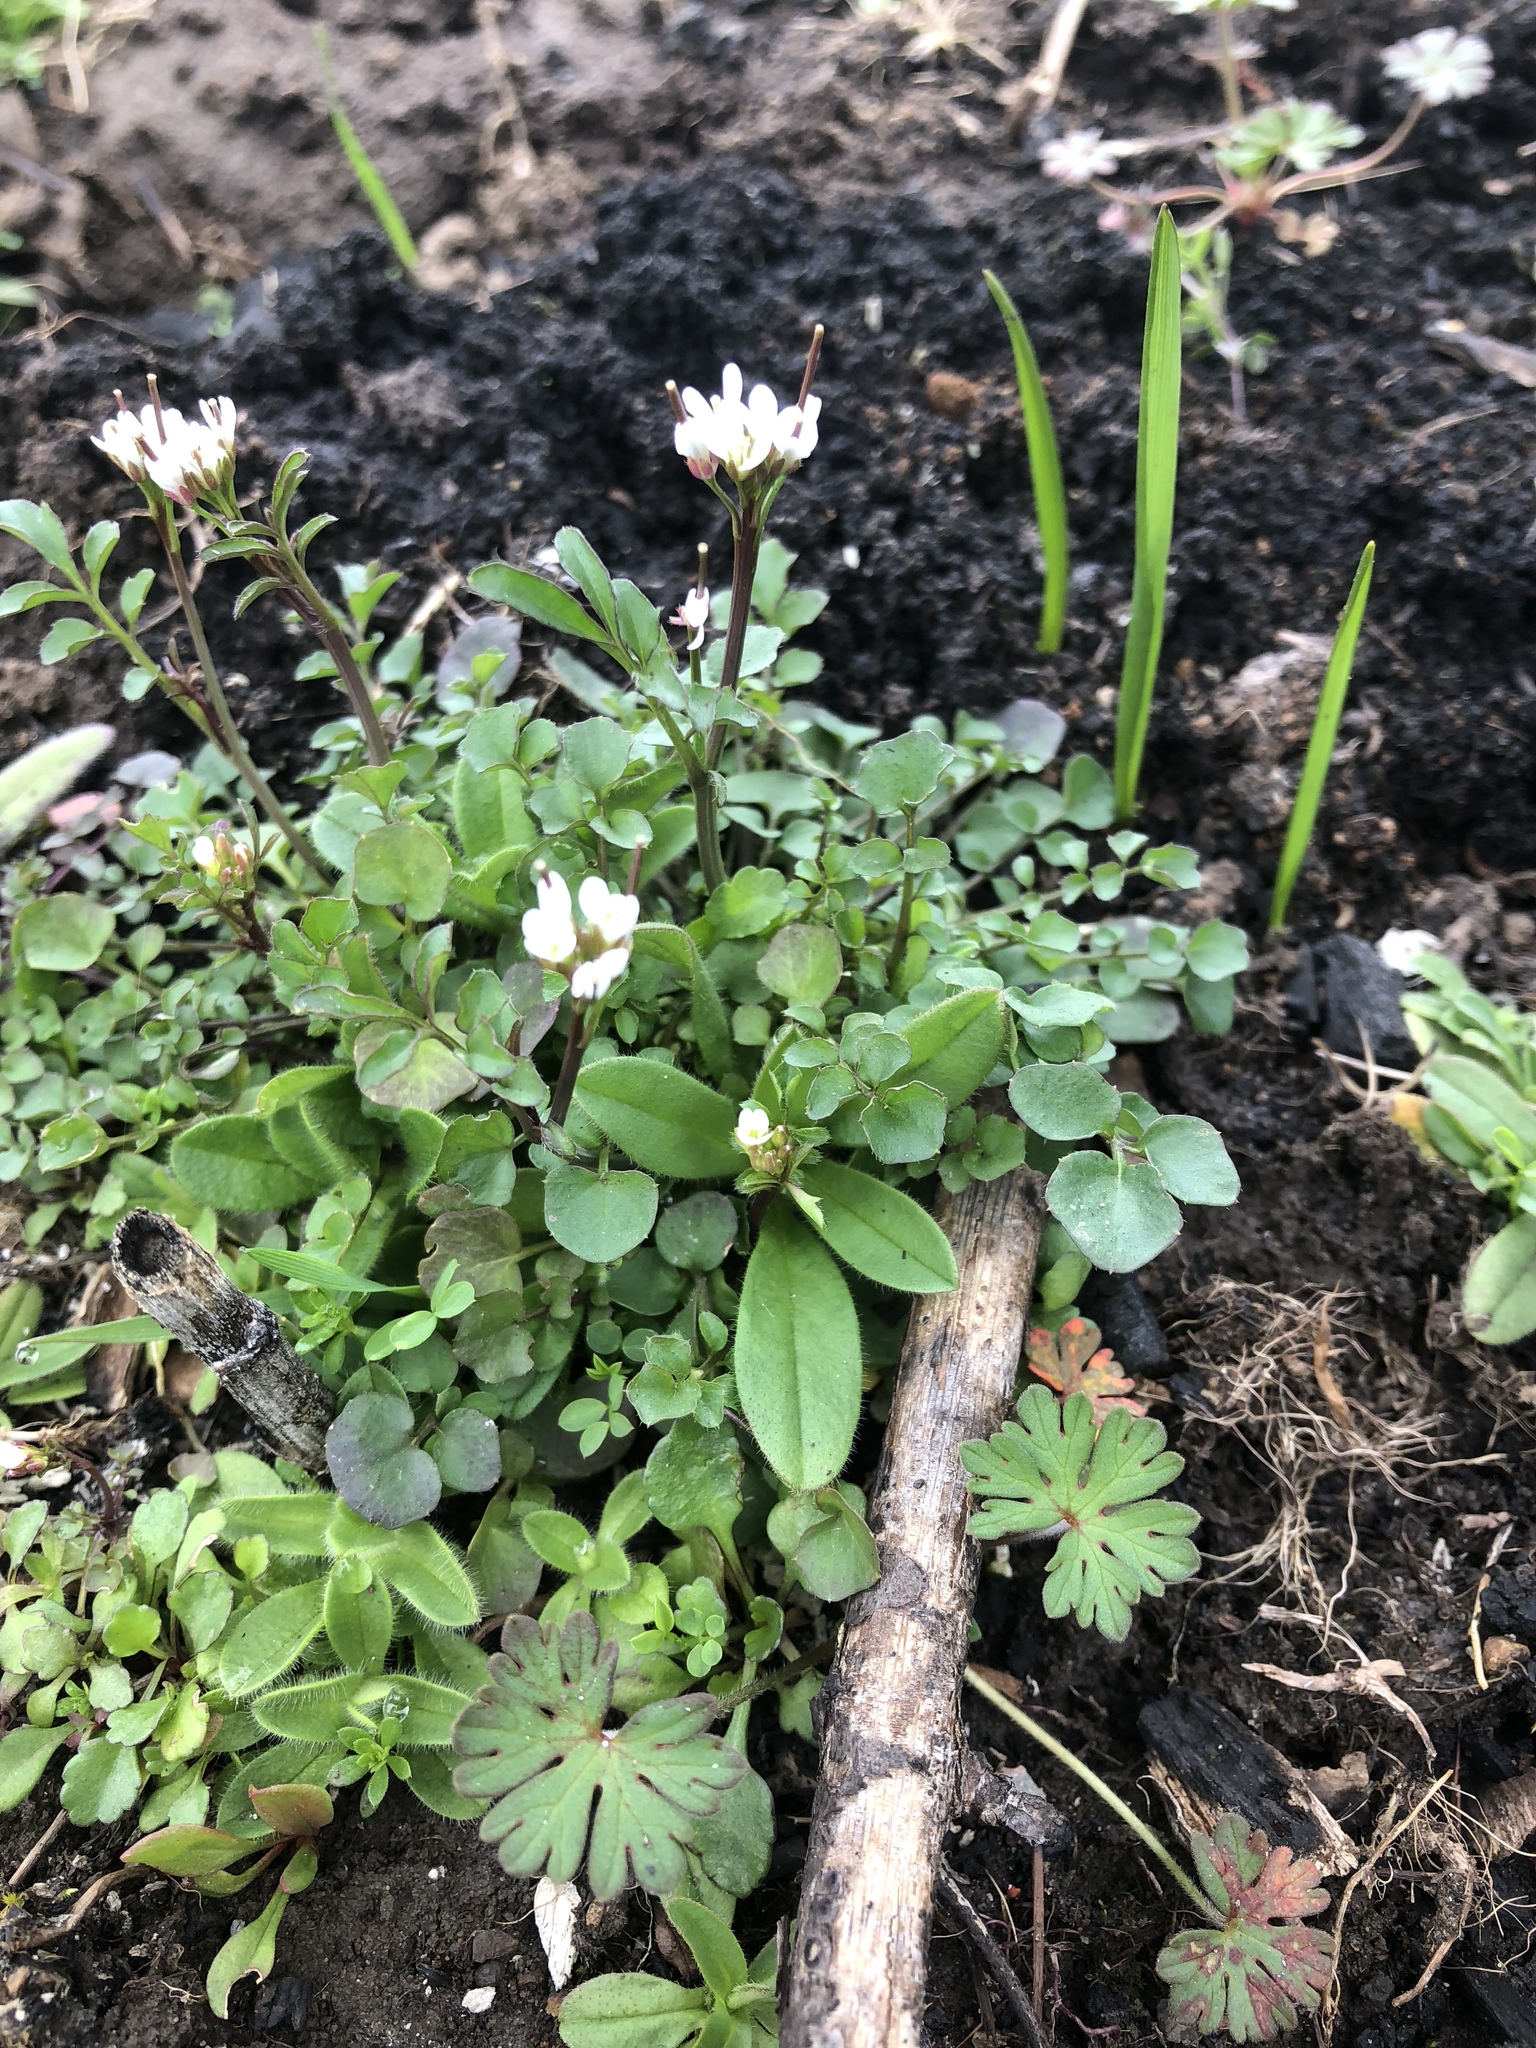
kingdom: Plantae
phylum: Tracheophyta
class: Magnoliopsida
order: Brassicales
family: Brassicaceae
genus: Cardamine
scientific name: Cardamine hirsuta
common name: Hairy bittercress
